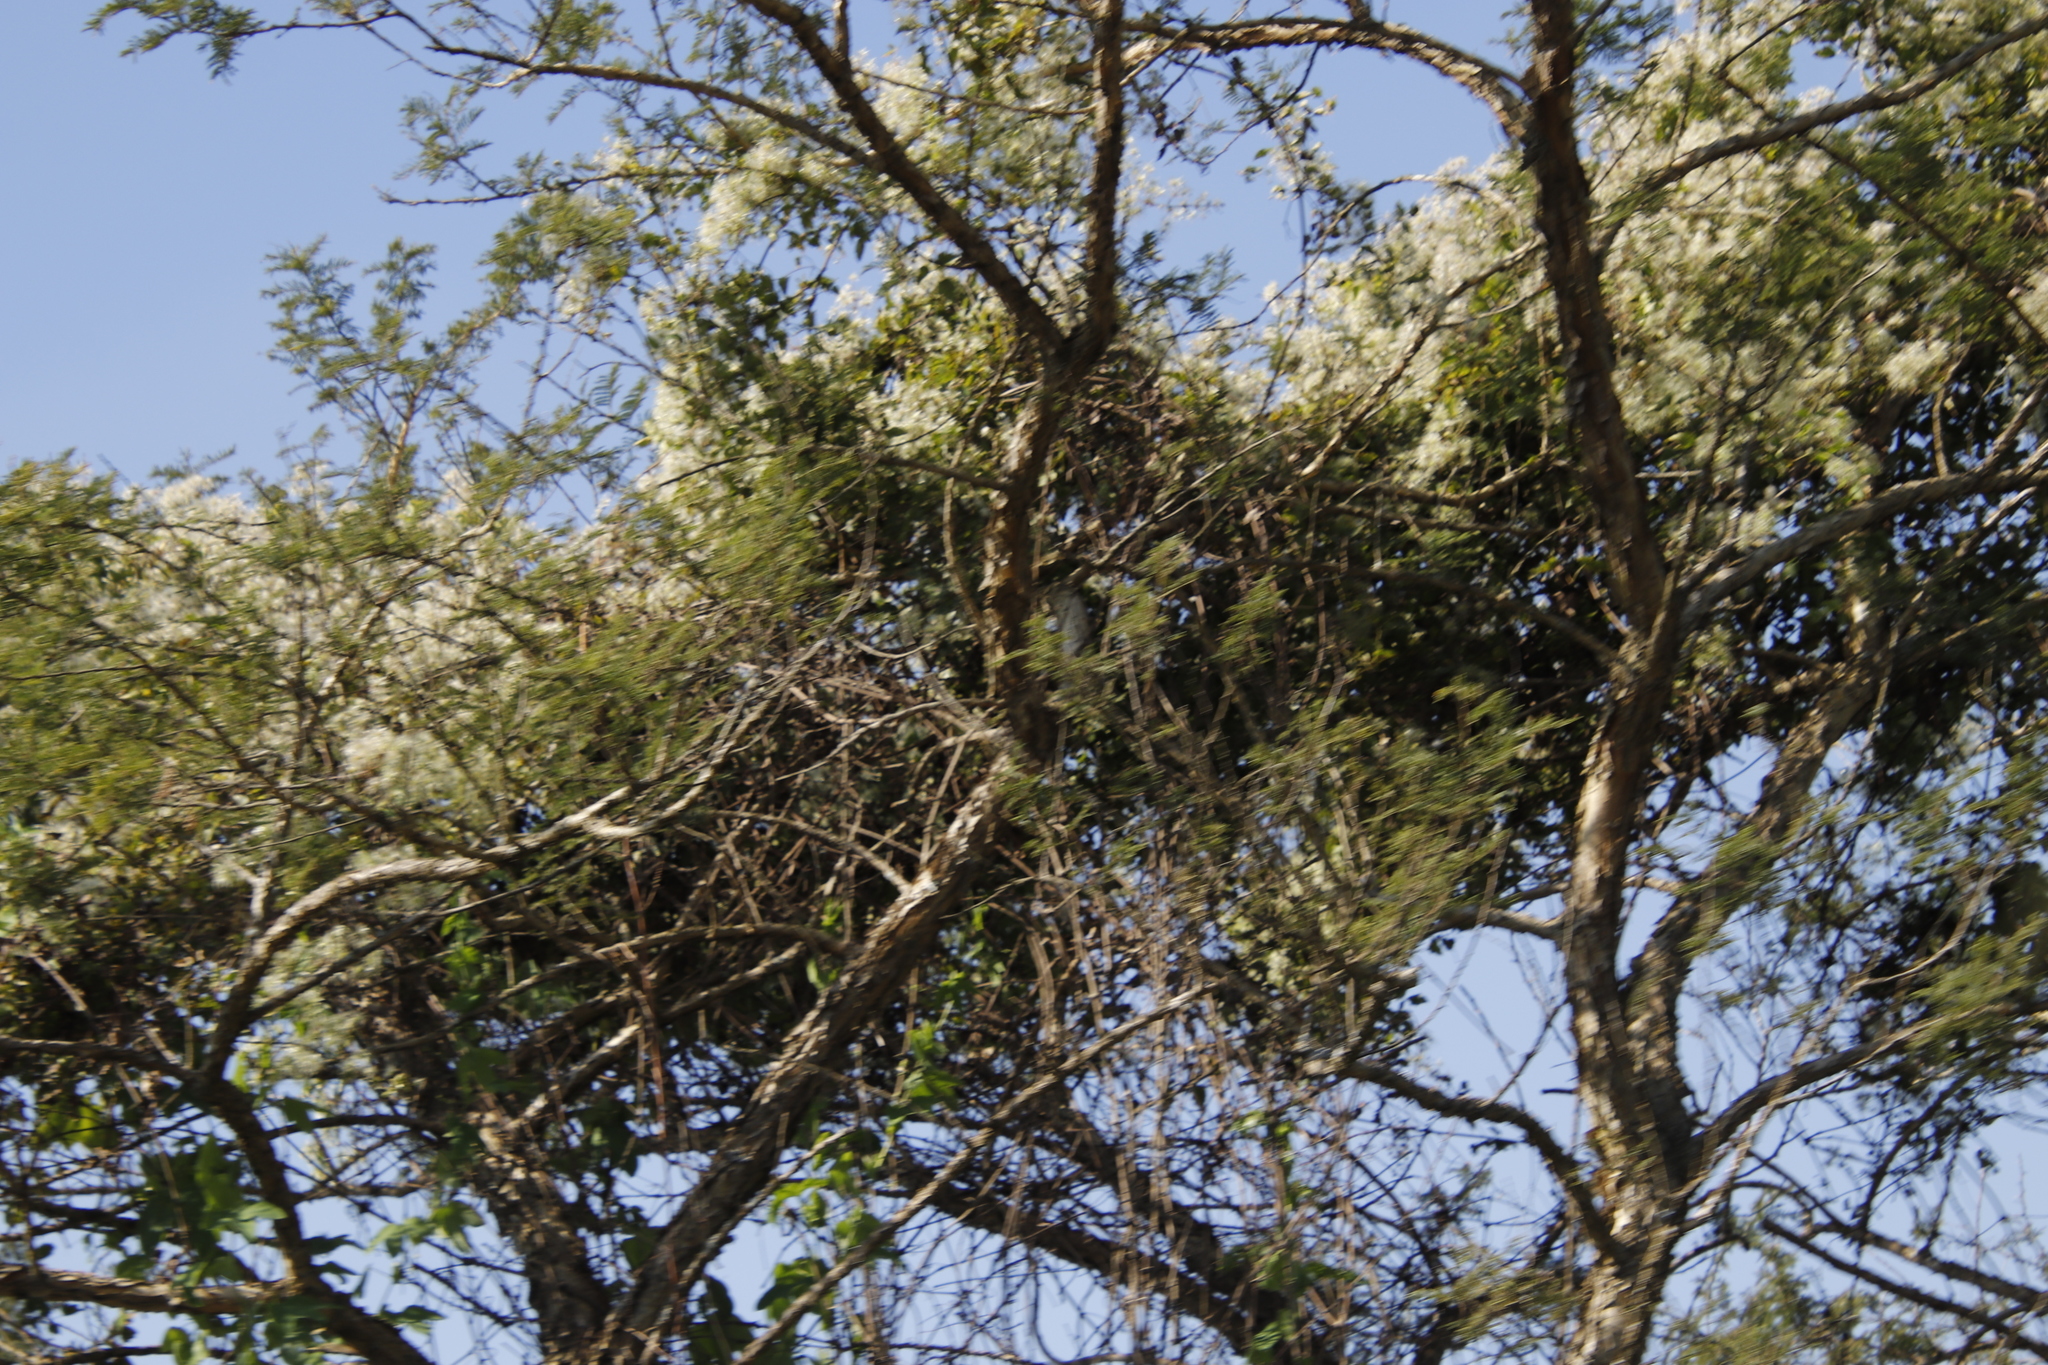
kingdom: Plantae
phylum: Tracheophyta
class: Magnoliopsida
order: Ranunculales
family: Ranunculaceae
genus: Clematis
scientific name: Clematis brachiata
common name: Traveler's-joy
